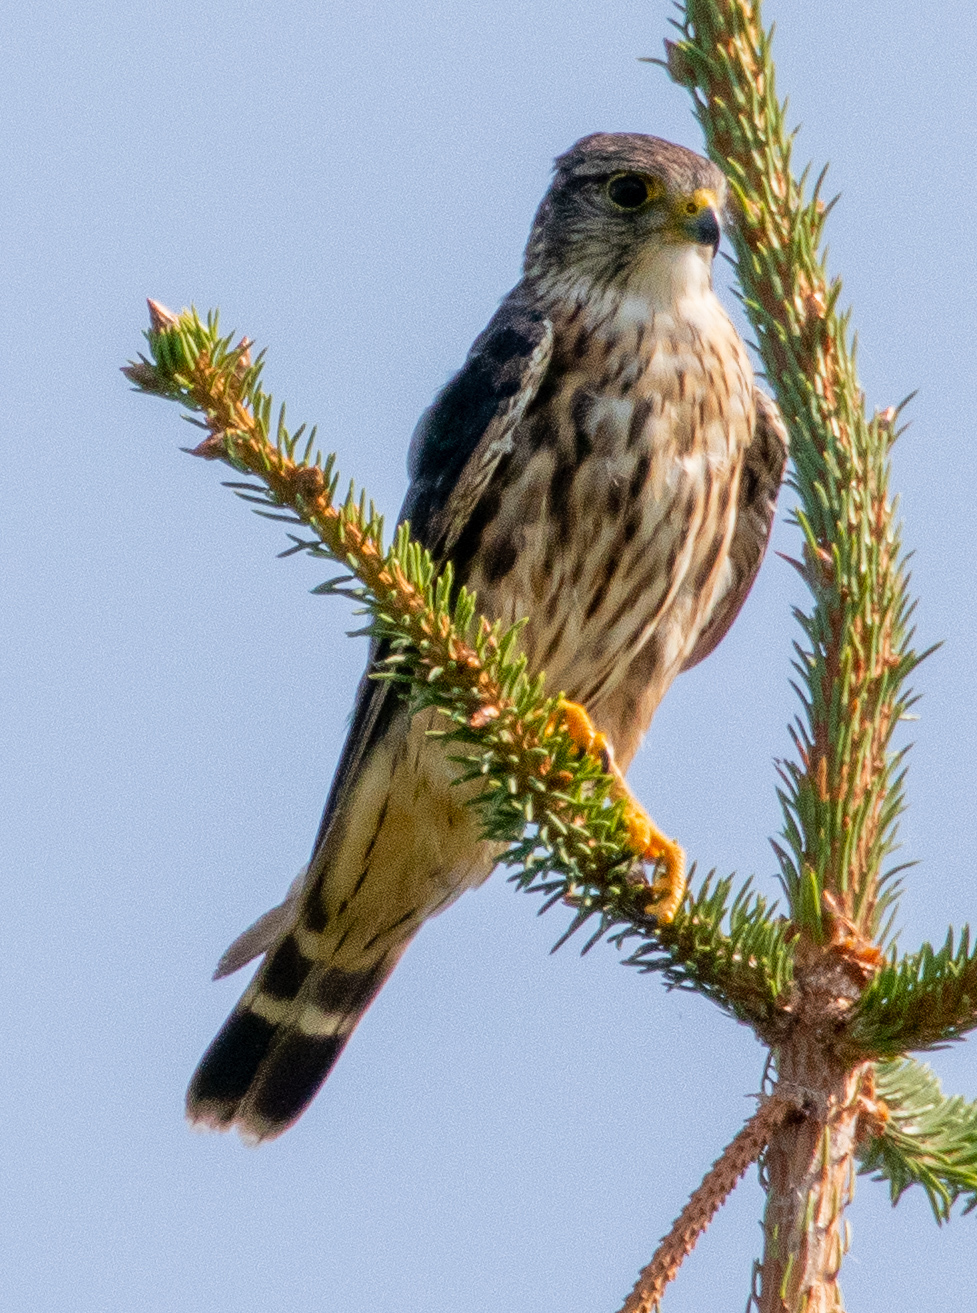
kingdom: Animalia
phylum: Chordata
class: Aves
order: Falconiformes
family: Falconidae
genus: Falco
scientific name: Falco columbarius
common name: Merlin
